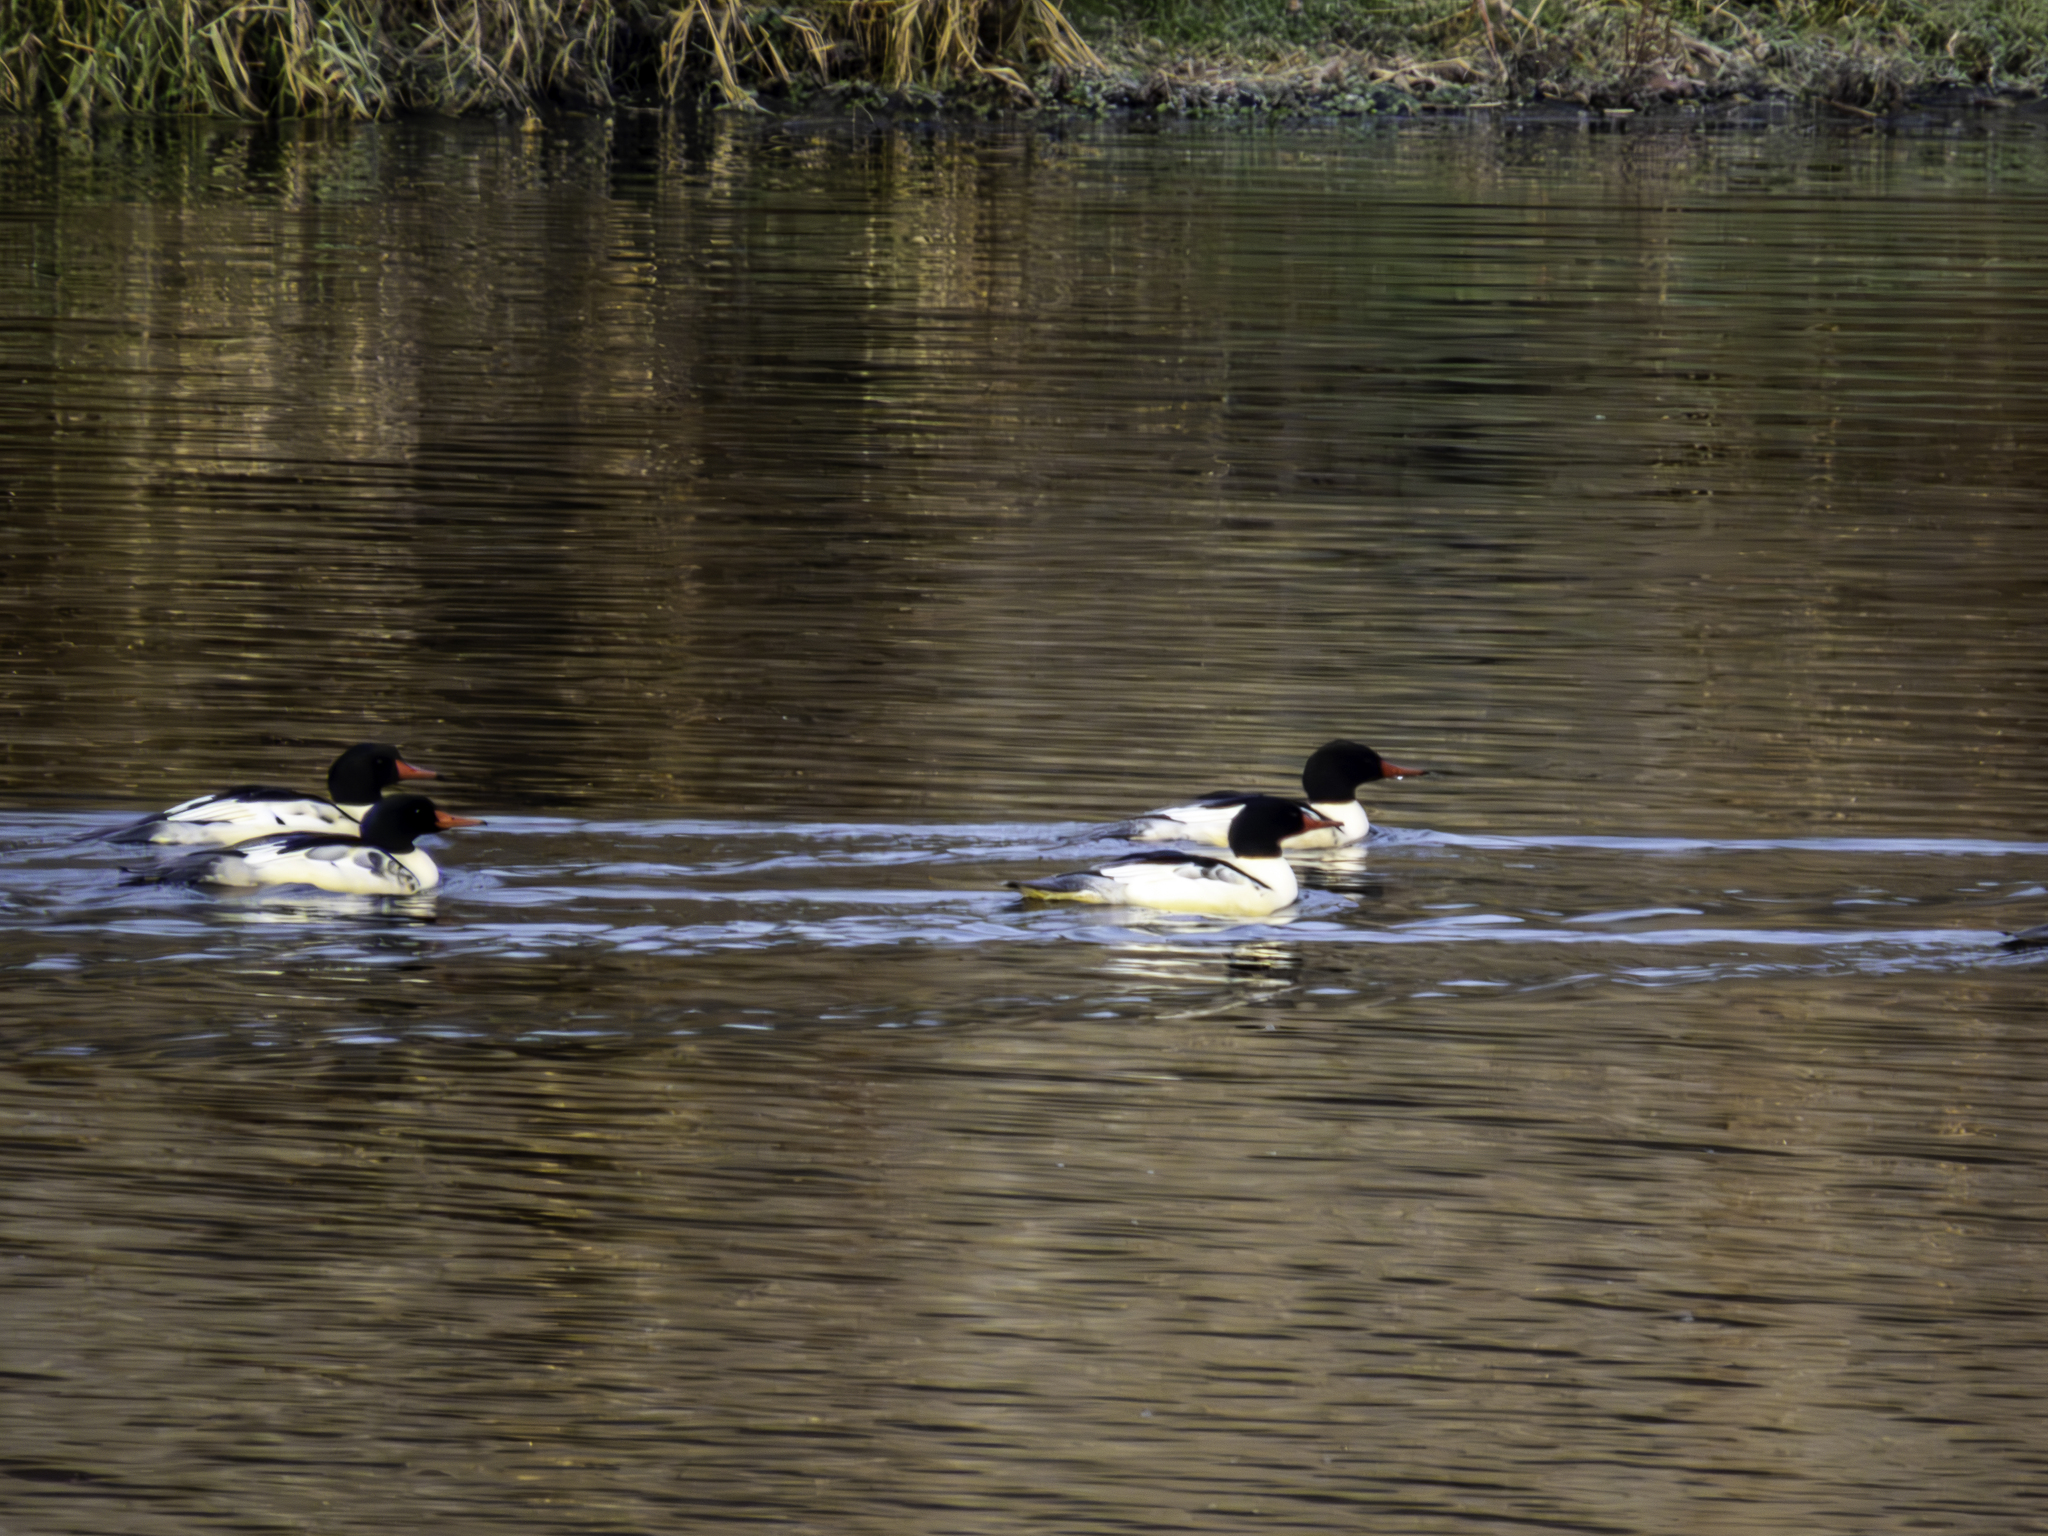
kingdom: Animalia
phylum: Chordata
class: Aves
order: Anseriformes
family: Anatidae
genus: Mergus
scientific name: Mergus merganser
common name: Common merganser
